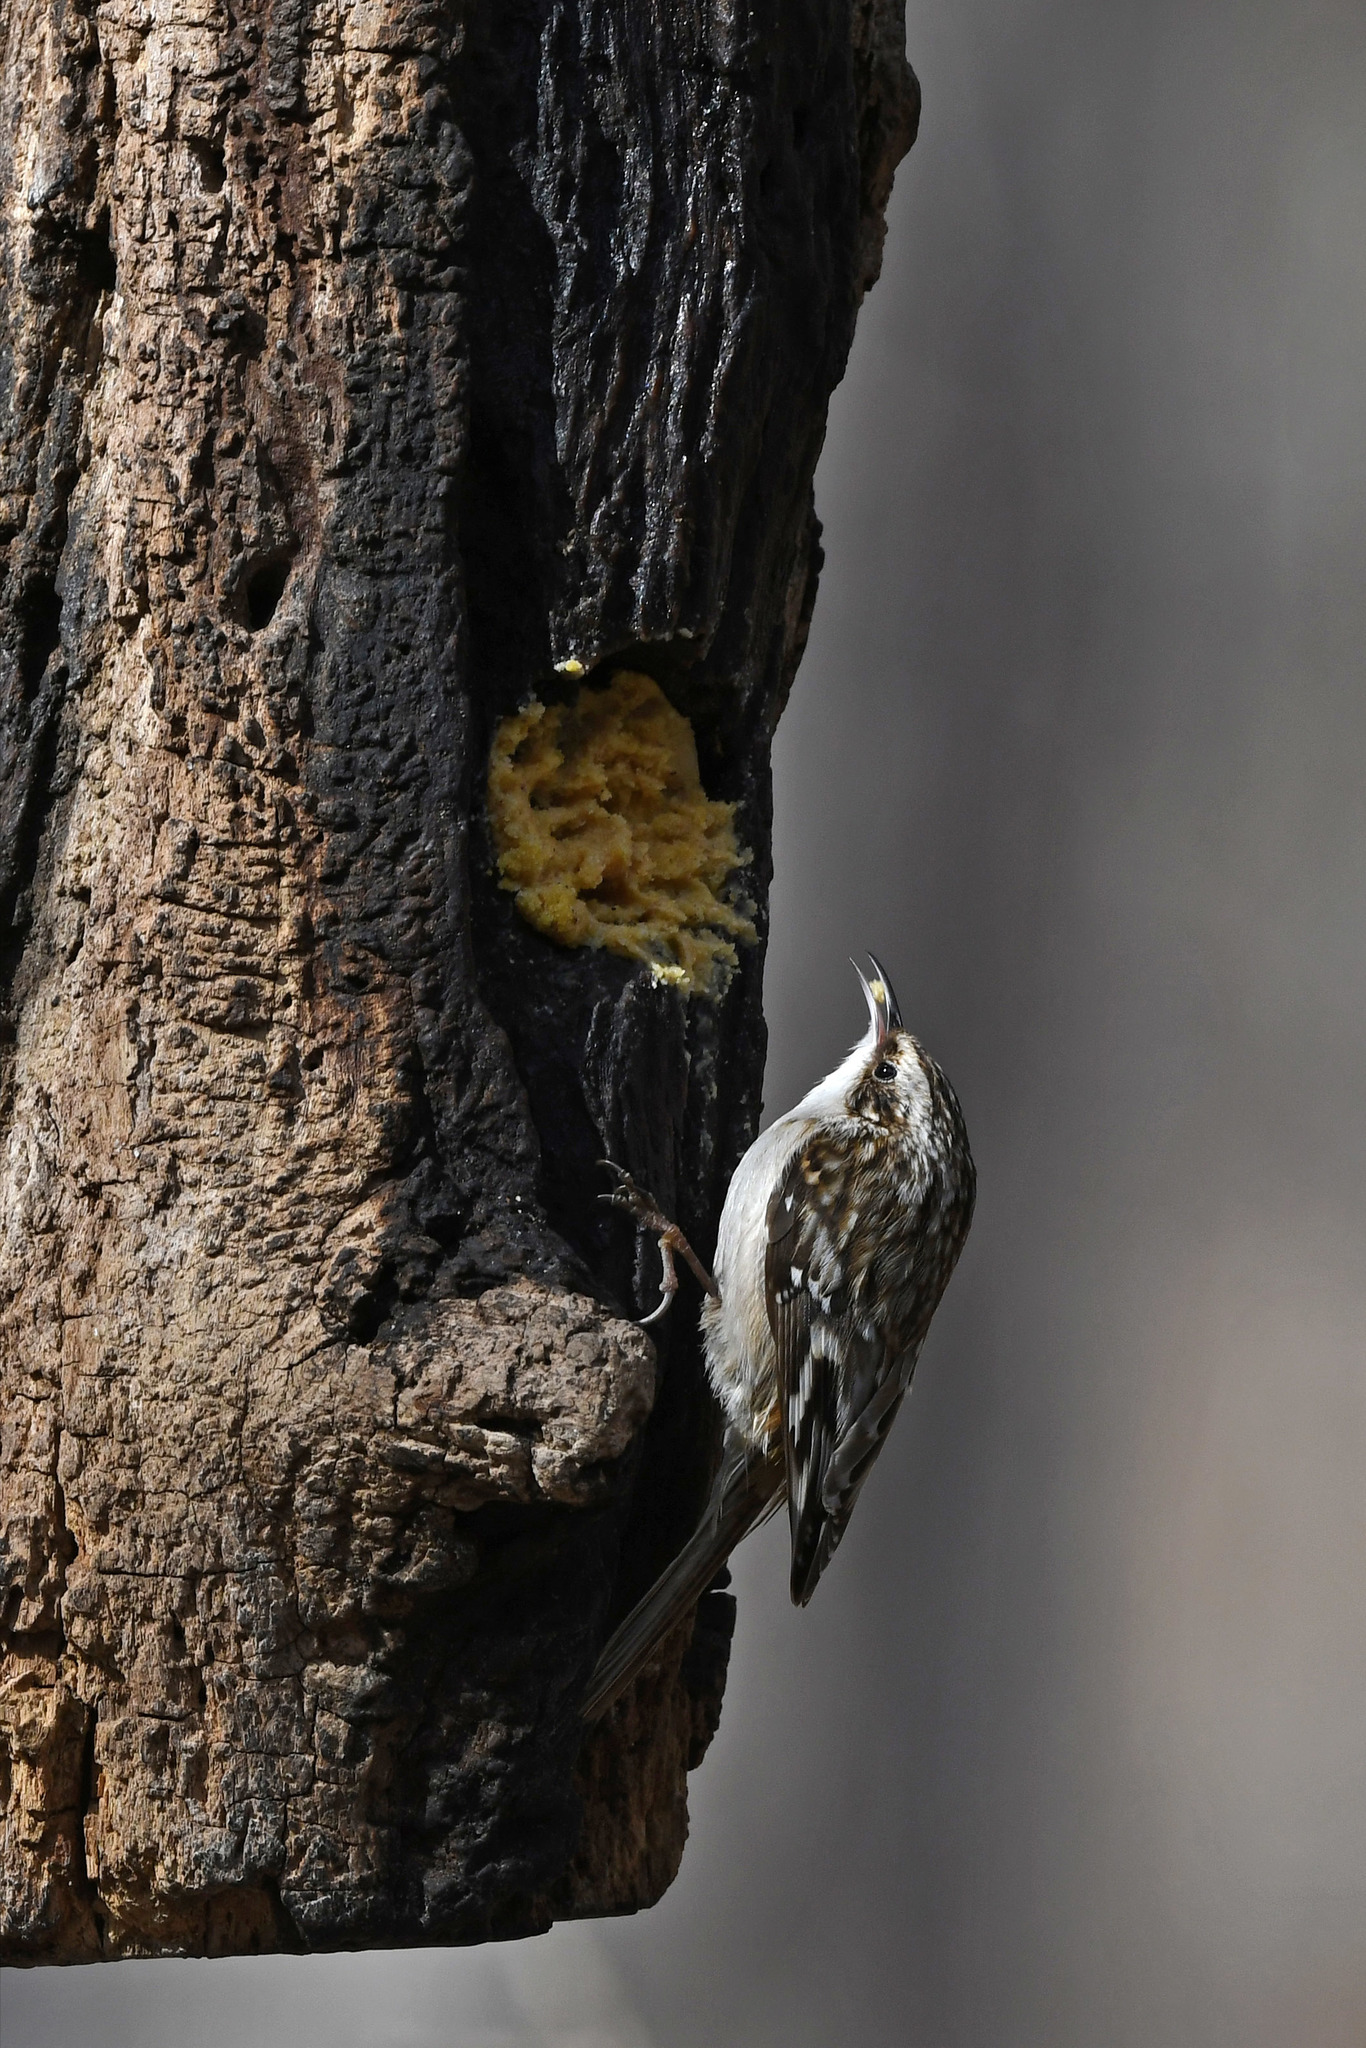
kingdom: Animalia
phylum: Chordata
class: Aves
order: Passeriformes
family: Certhiidae
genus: Certhia
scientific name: Certhia americana
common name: Brown creeper
